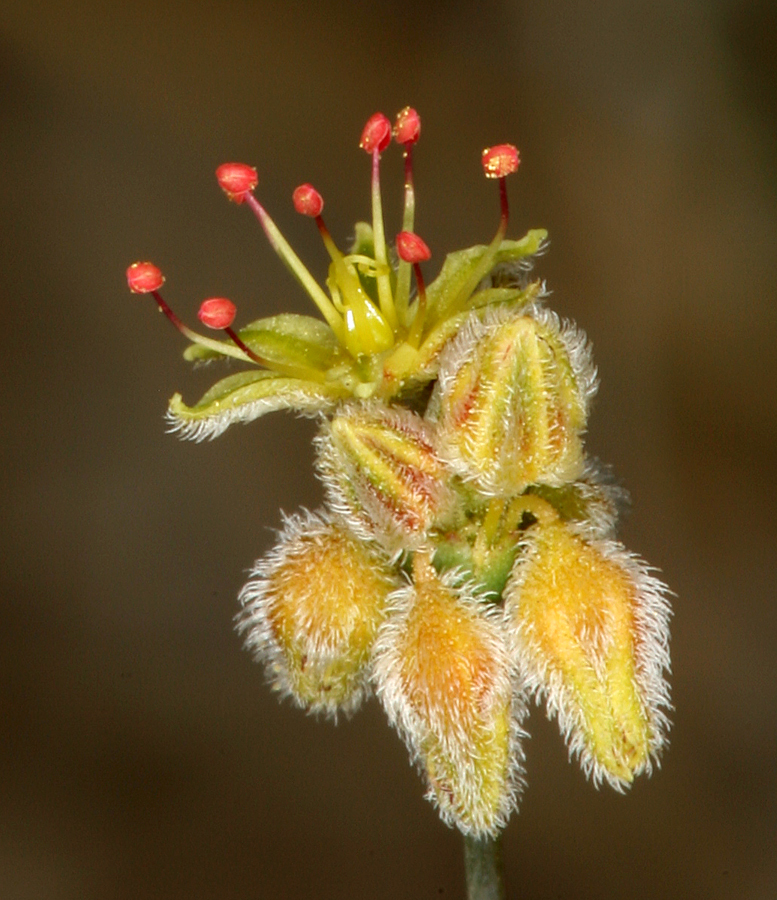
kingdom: Plantae
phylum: Tracheophyta
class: Magnoliopsida
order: Caryophyllales
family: Polygonaceae
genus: Eriogonum
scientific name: Eriogonum inflatum
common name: Desert trumpet
